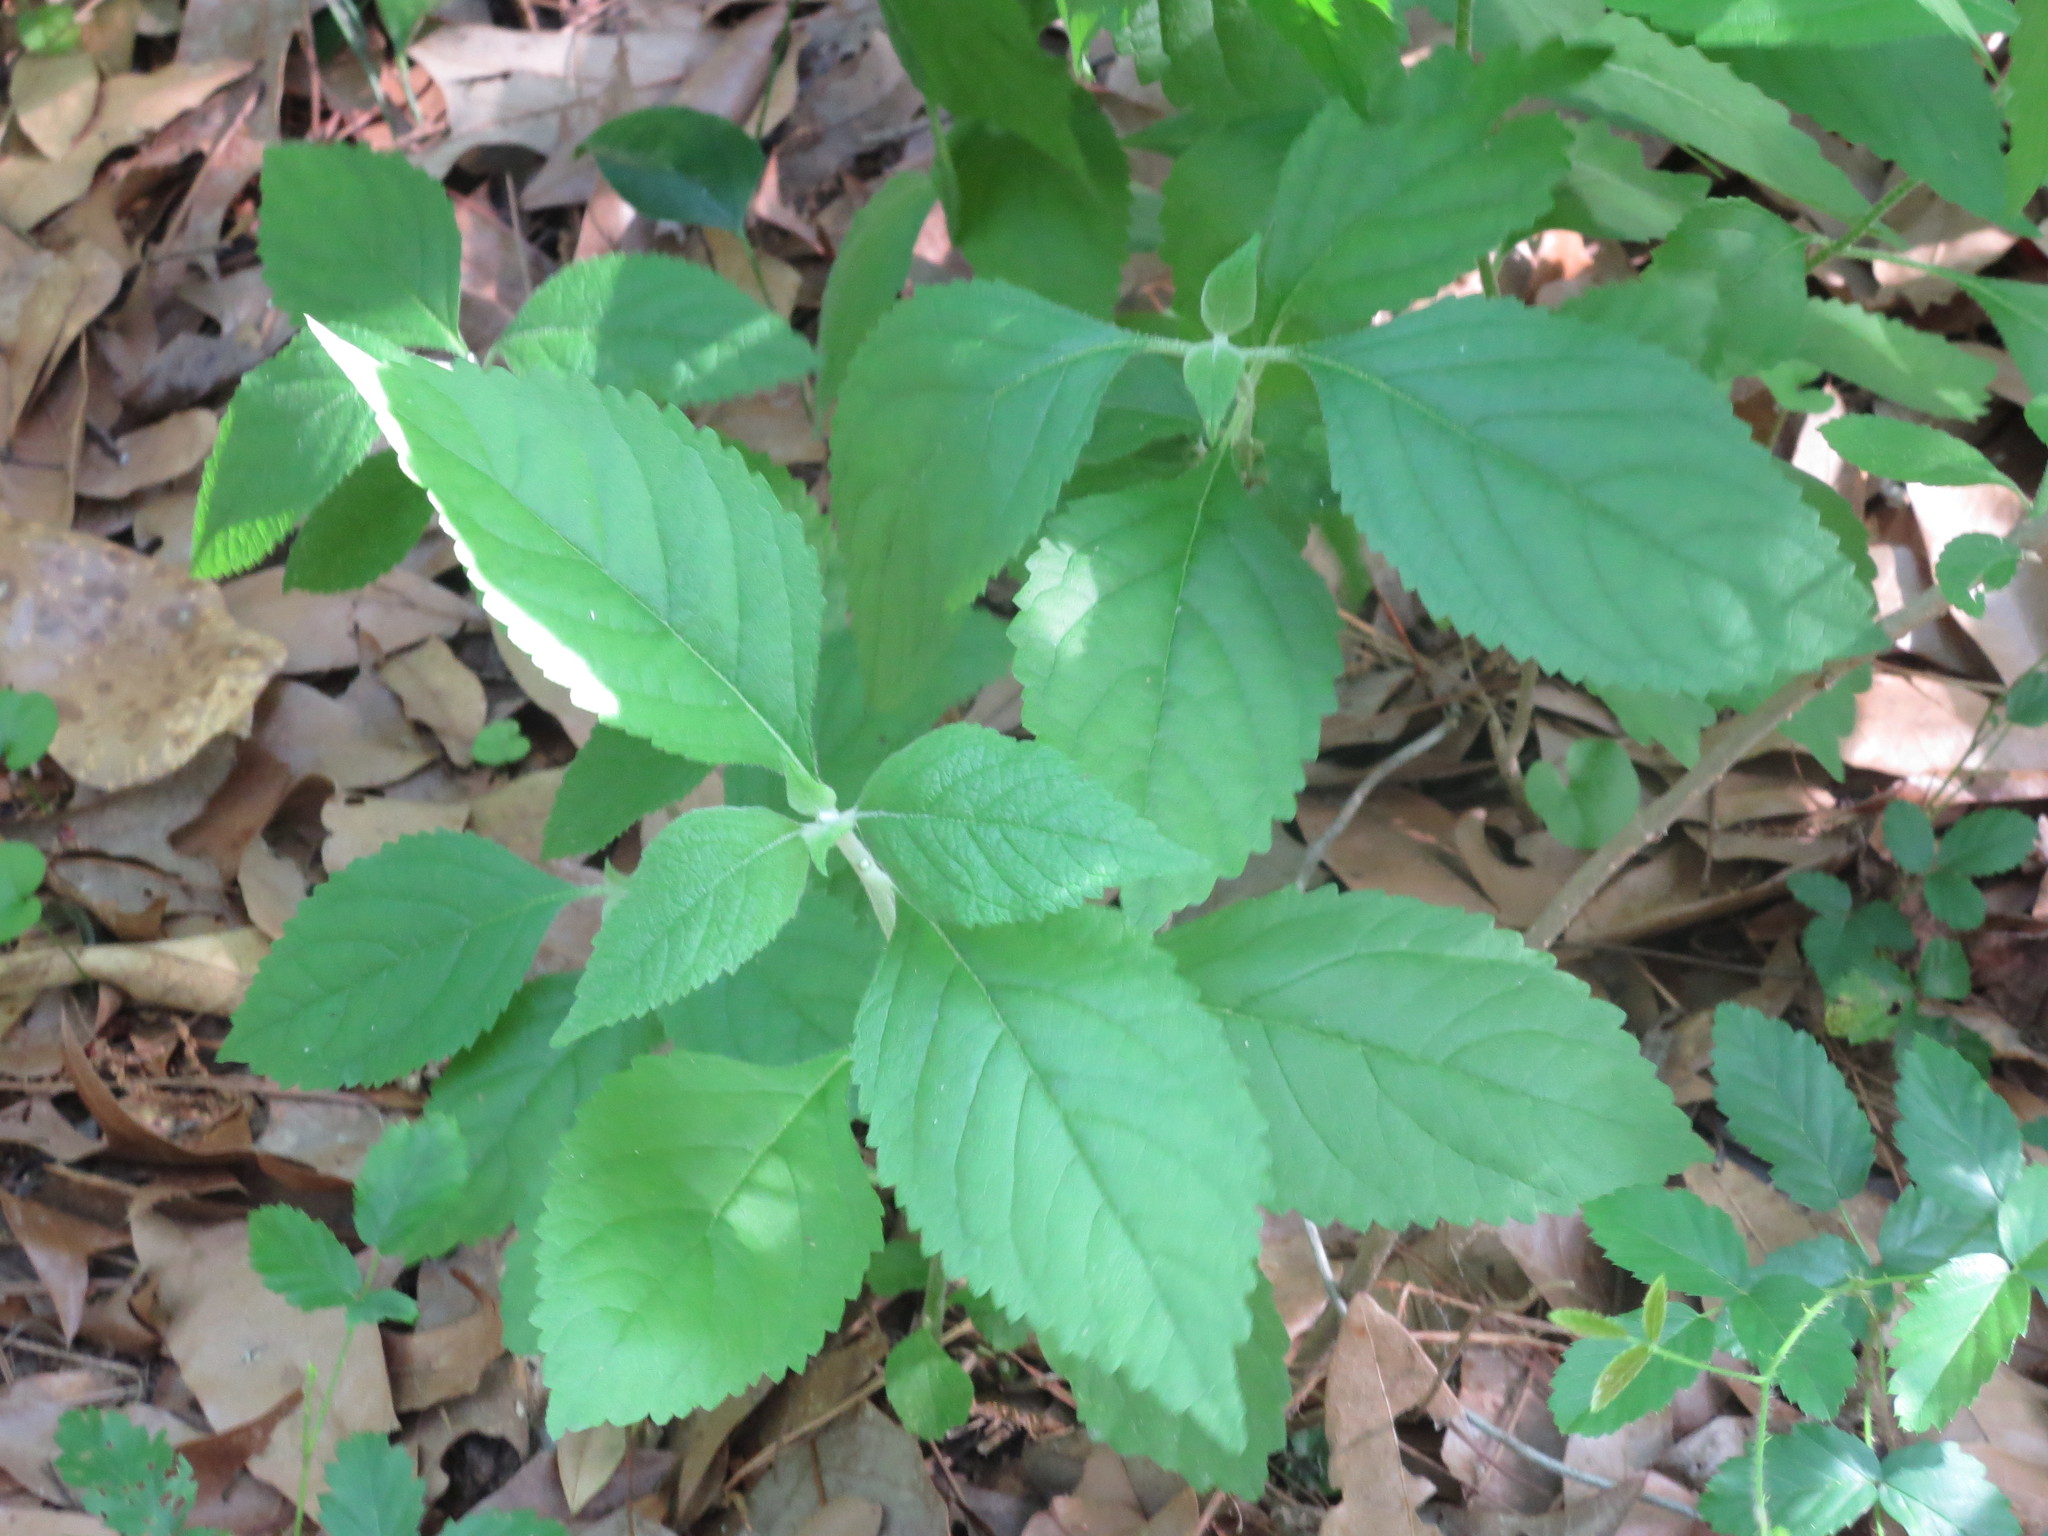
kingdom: Plantae
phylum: Tracheophyta
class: Magnoliopsida
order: Lamiales
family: Lamiaceae
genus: Callicarpa
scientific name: Callicarpa americana
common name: American beautyberry
